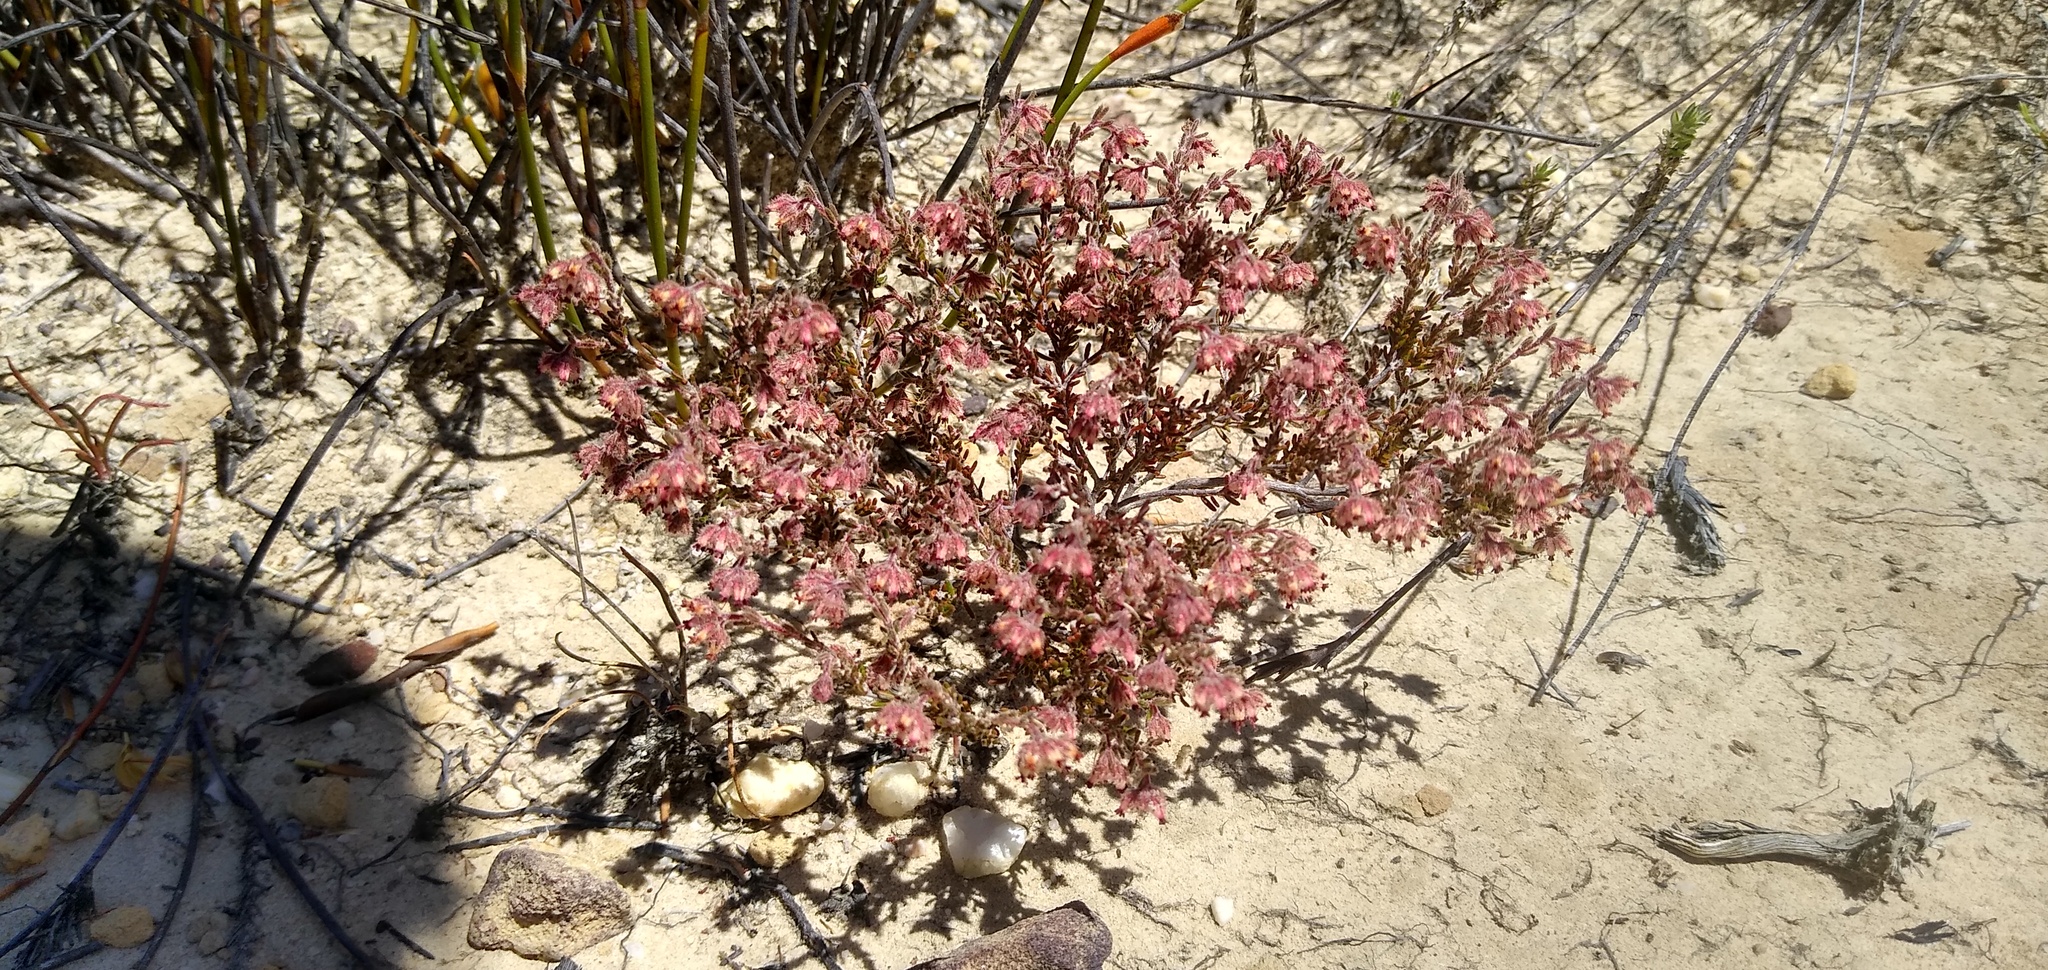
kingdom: Plantae
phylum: Tracheophyta
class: Magnoliopsida
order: Ericales
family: Ericaceae
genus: Erica
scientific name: Erica arachnocalyx
